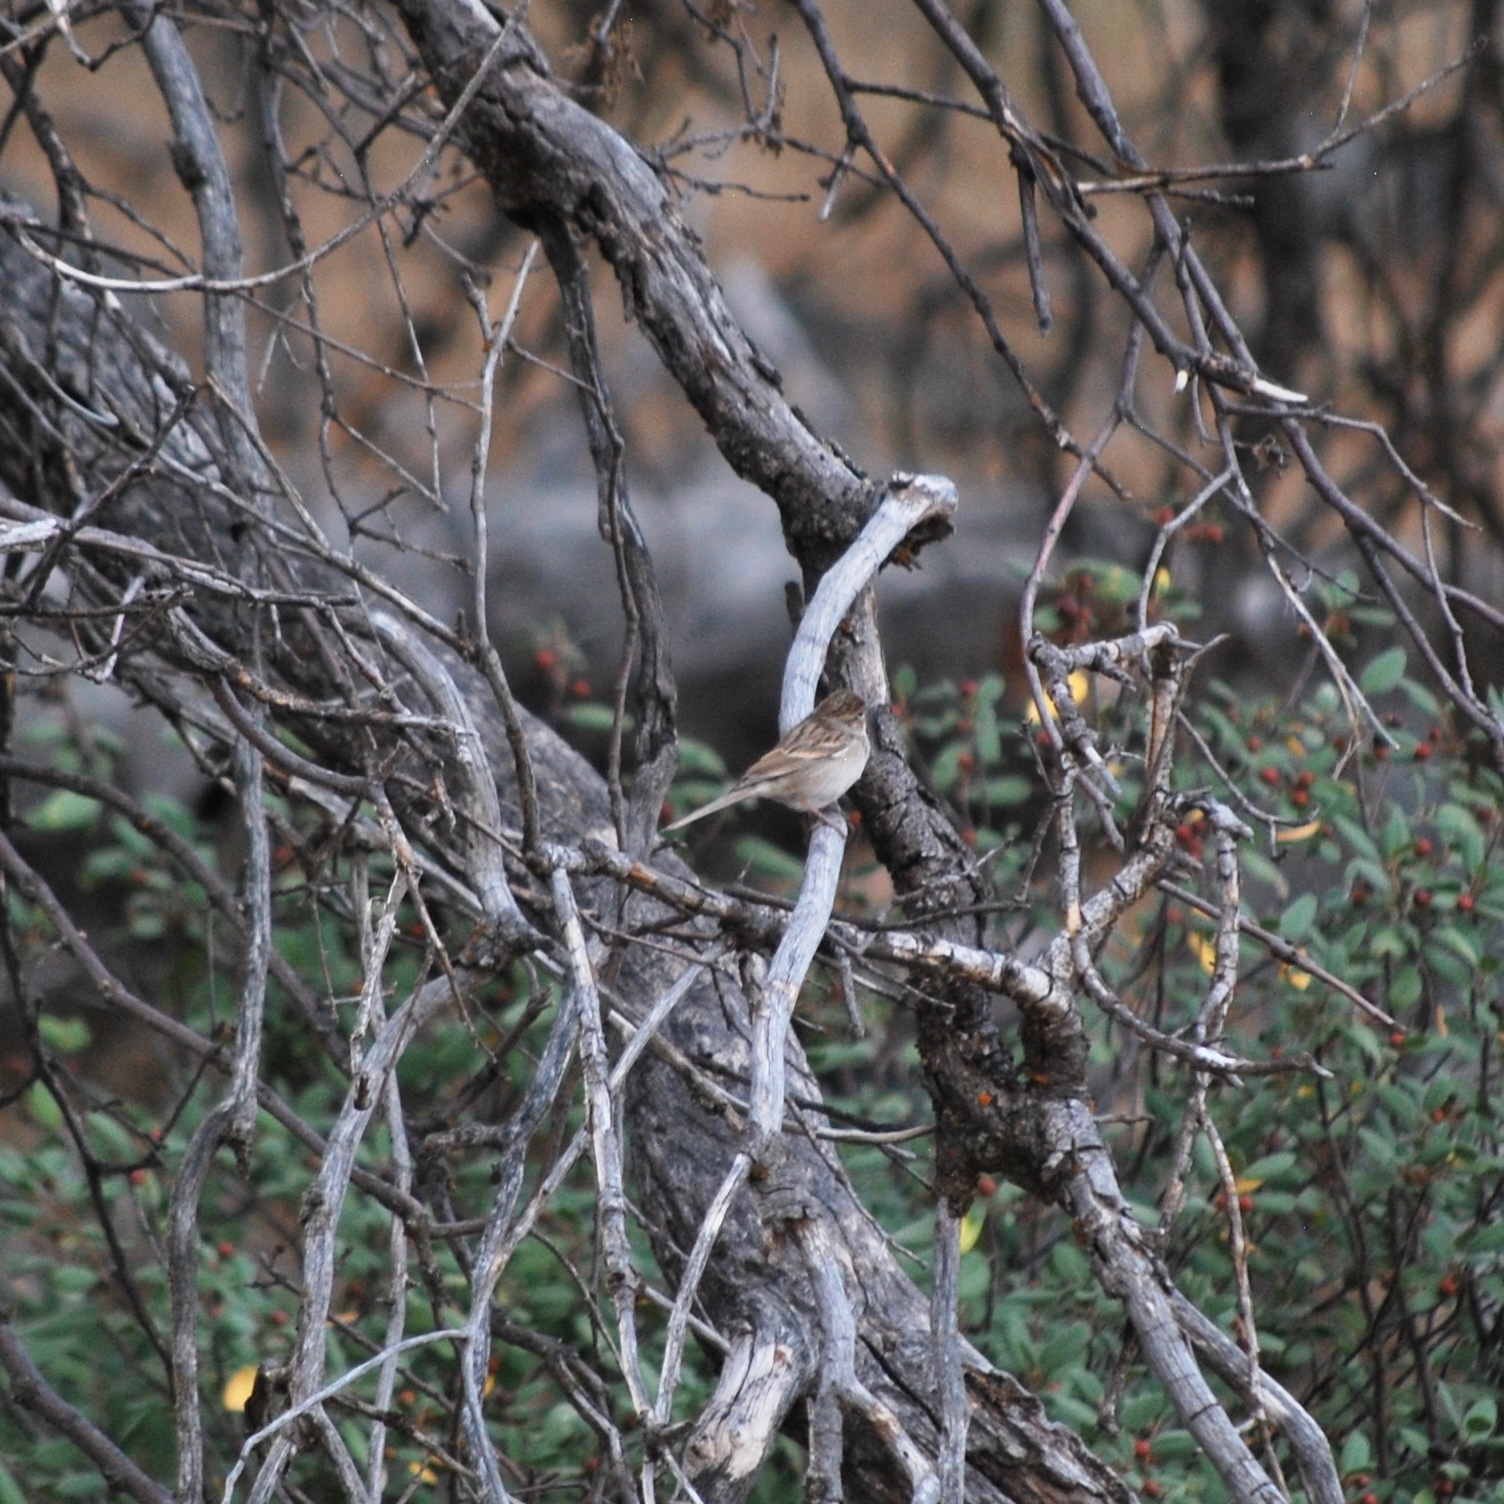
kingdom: Animalia
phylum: Chordata
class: Aves
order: Passeriformes
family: Passerellidae
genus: Spizella
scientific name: Spizella breweri
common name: Brewer's sparrow
